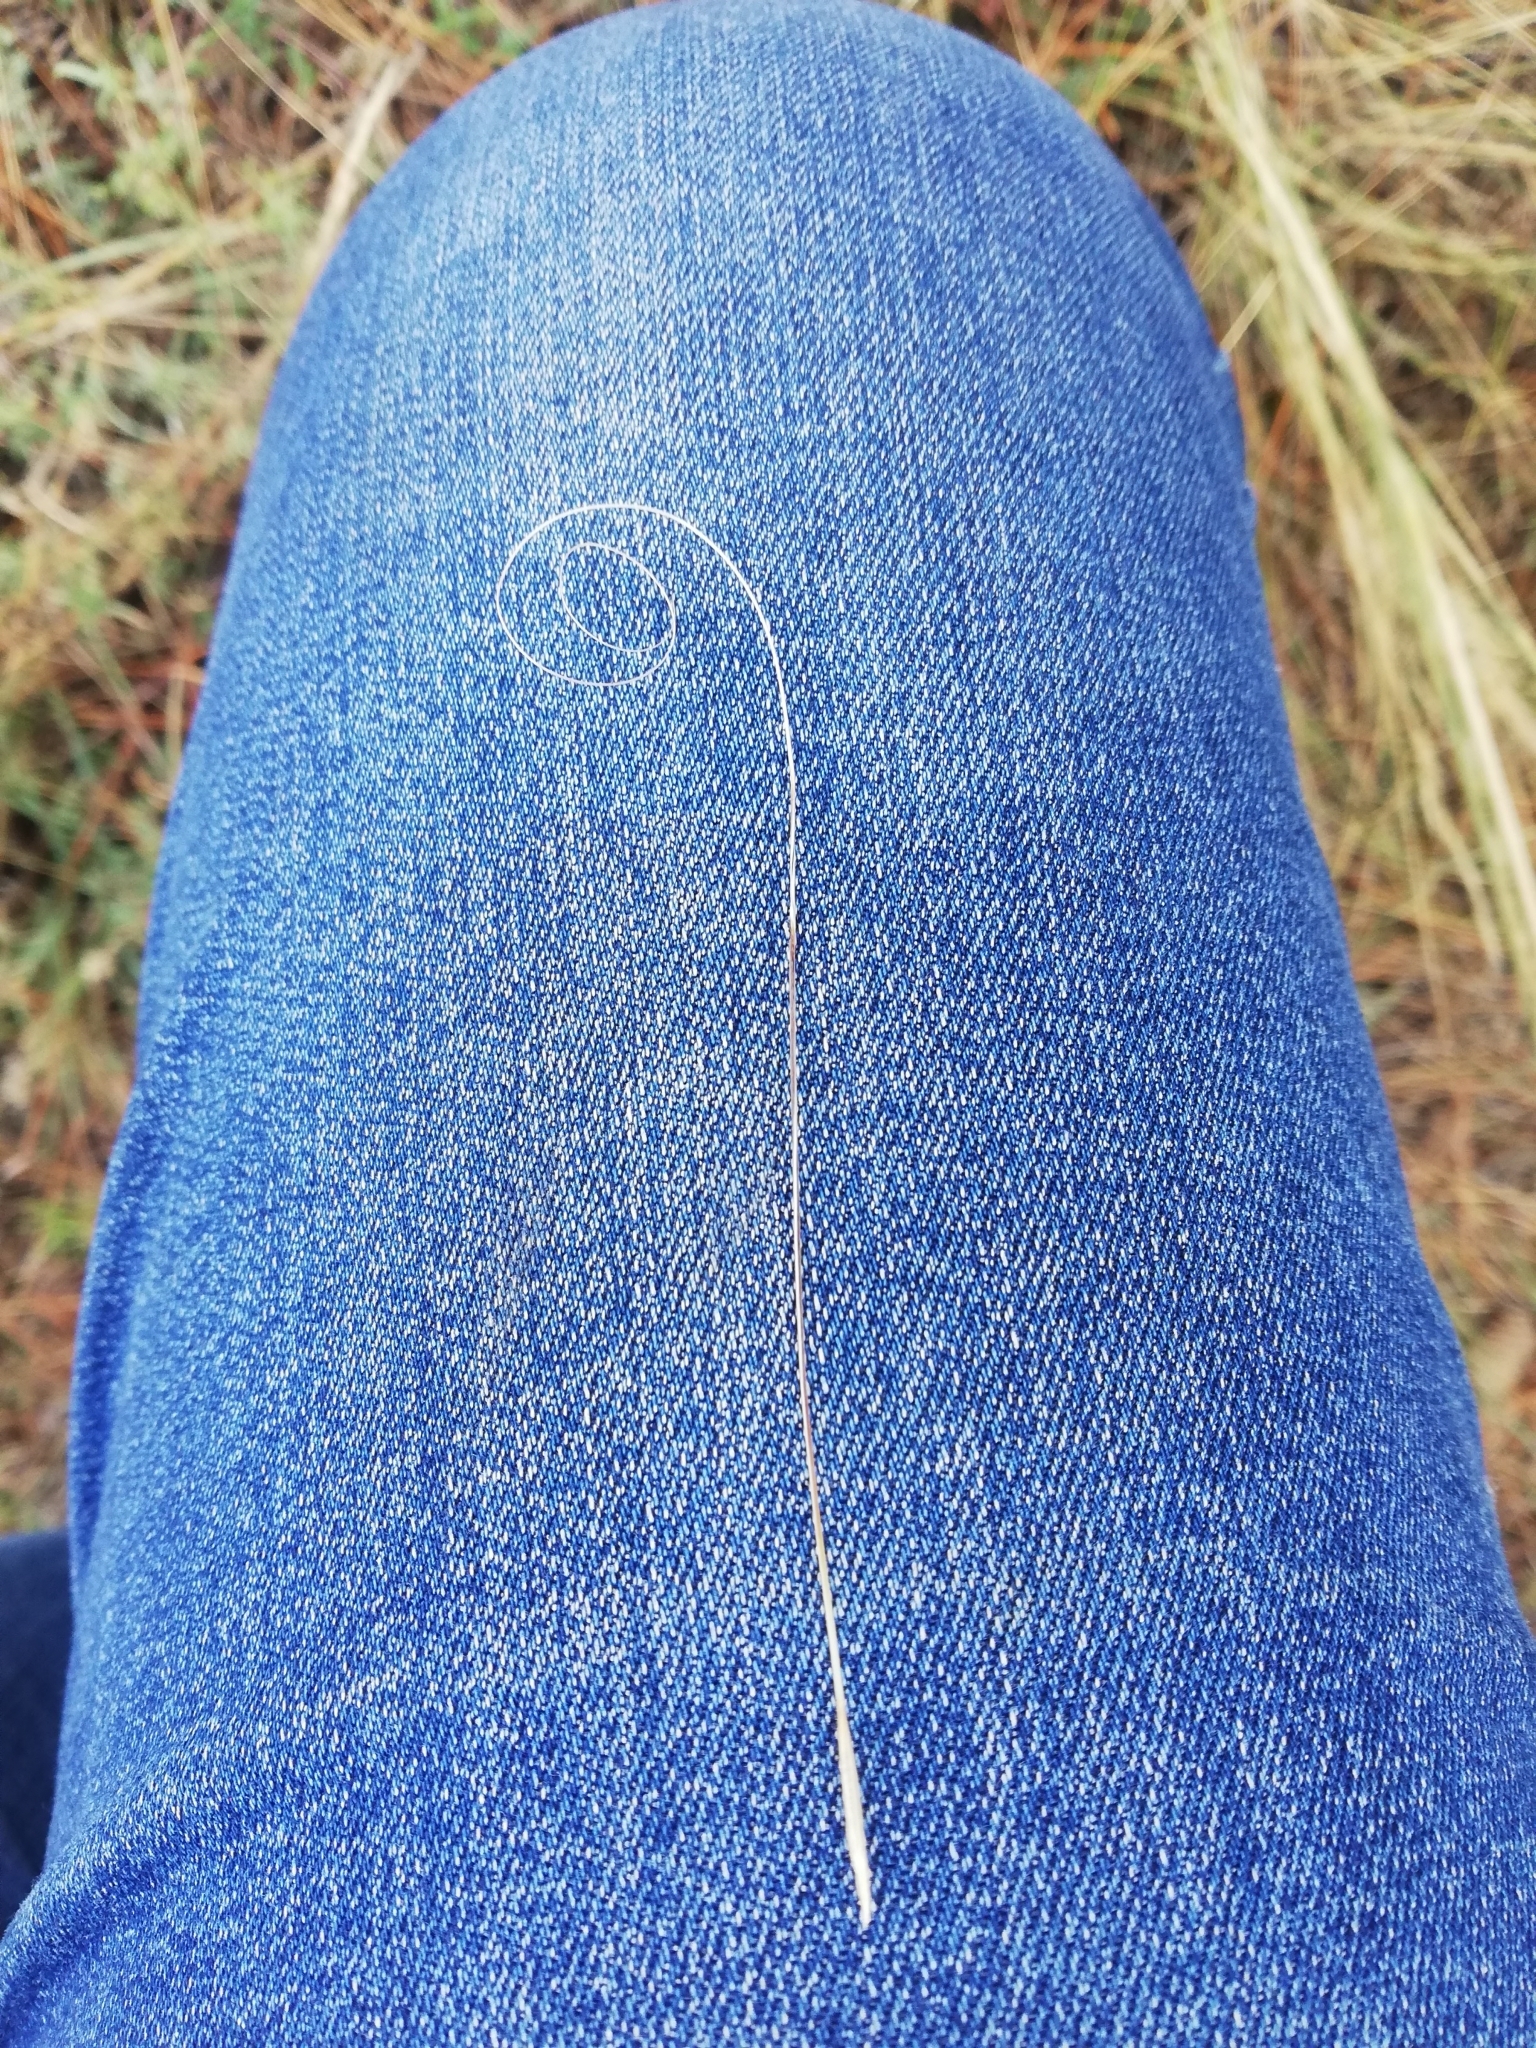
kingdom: Plantae
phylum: Tracheophyta
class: Liliopsida
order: Poales
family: Poaceae
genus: Stipa
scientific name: Stipa capillata
